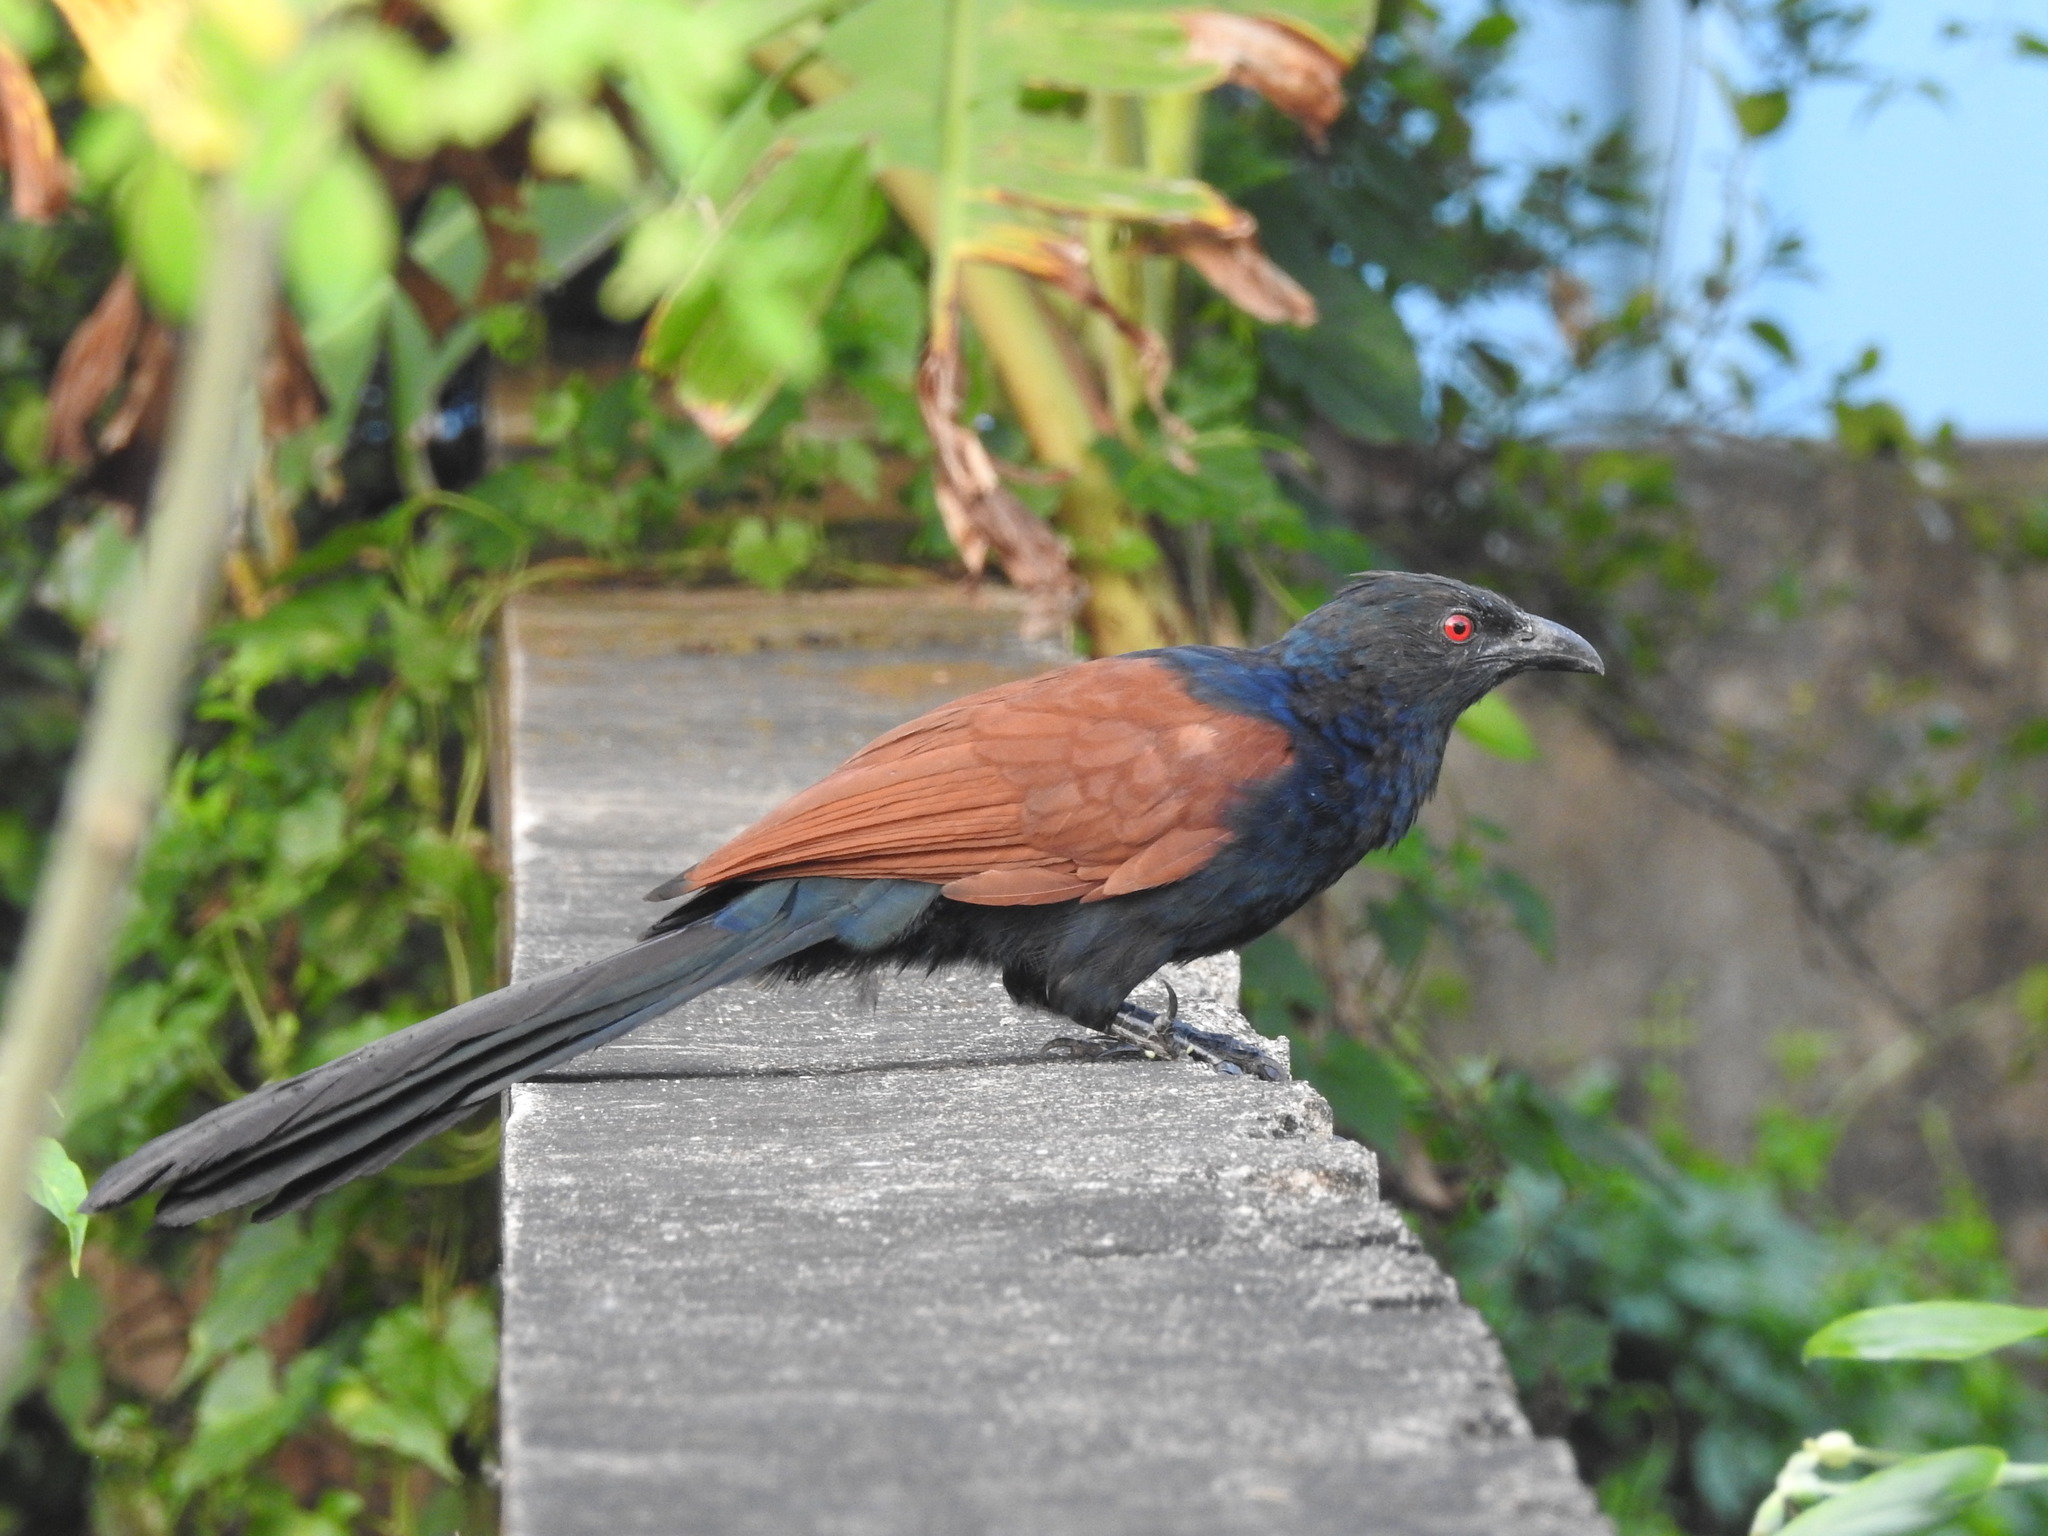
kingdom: Animalia
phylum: Chordata
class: Aves
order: Cuculiformes
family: Cuculidae
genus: Centropus
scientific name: Centropus sinensis
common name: Greater coucal
